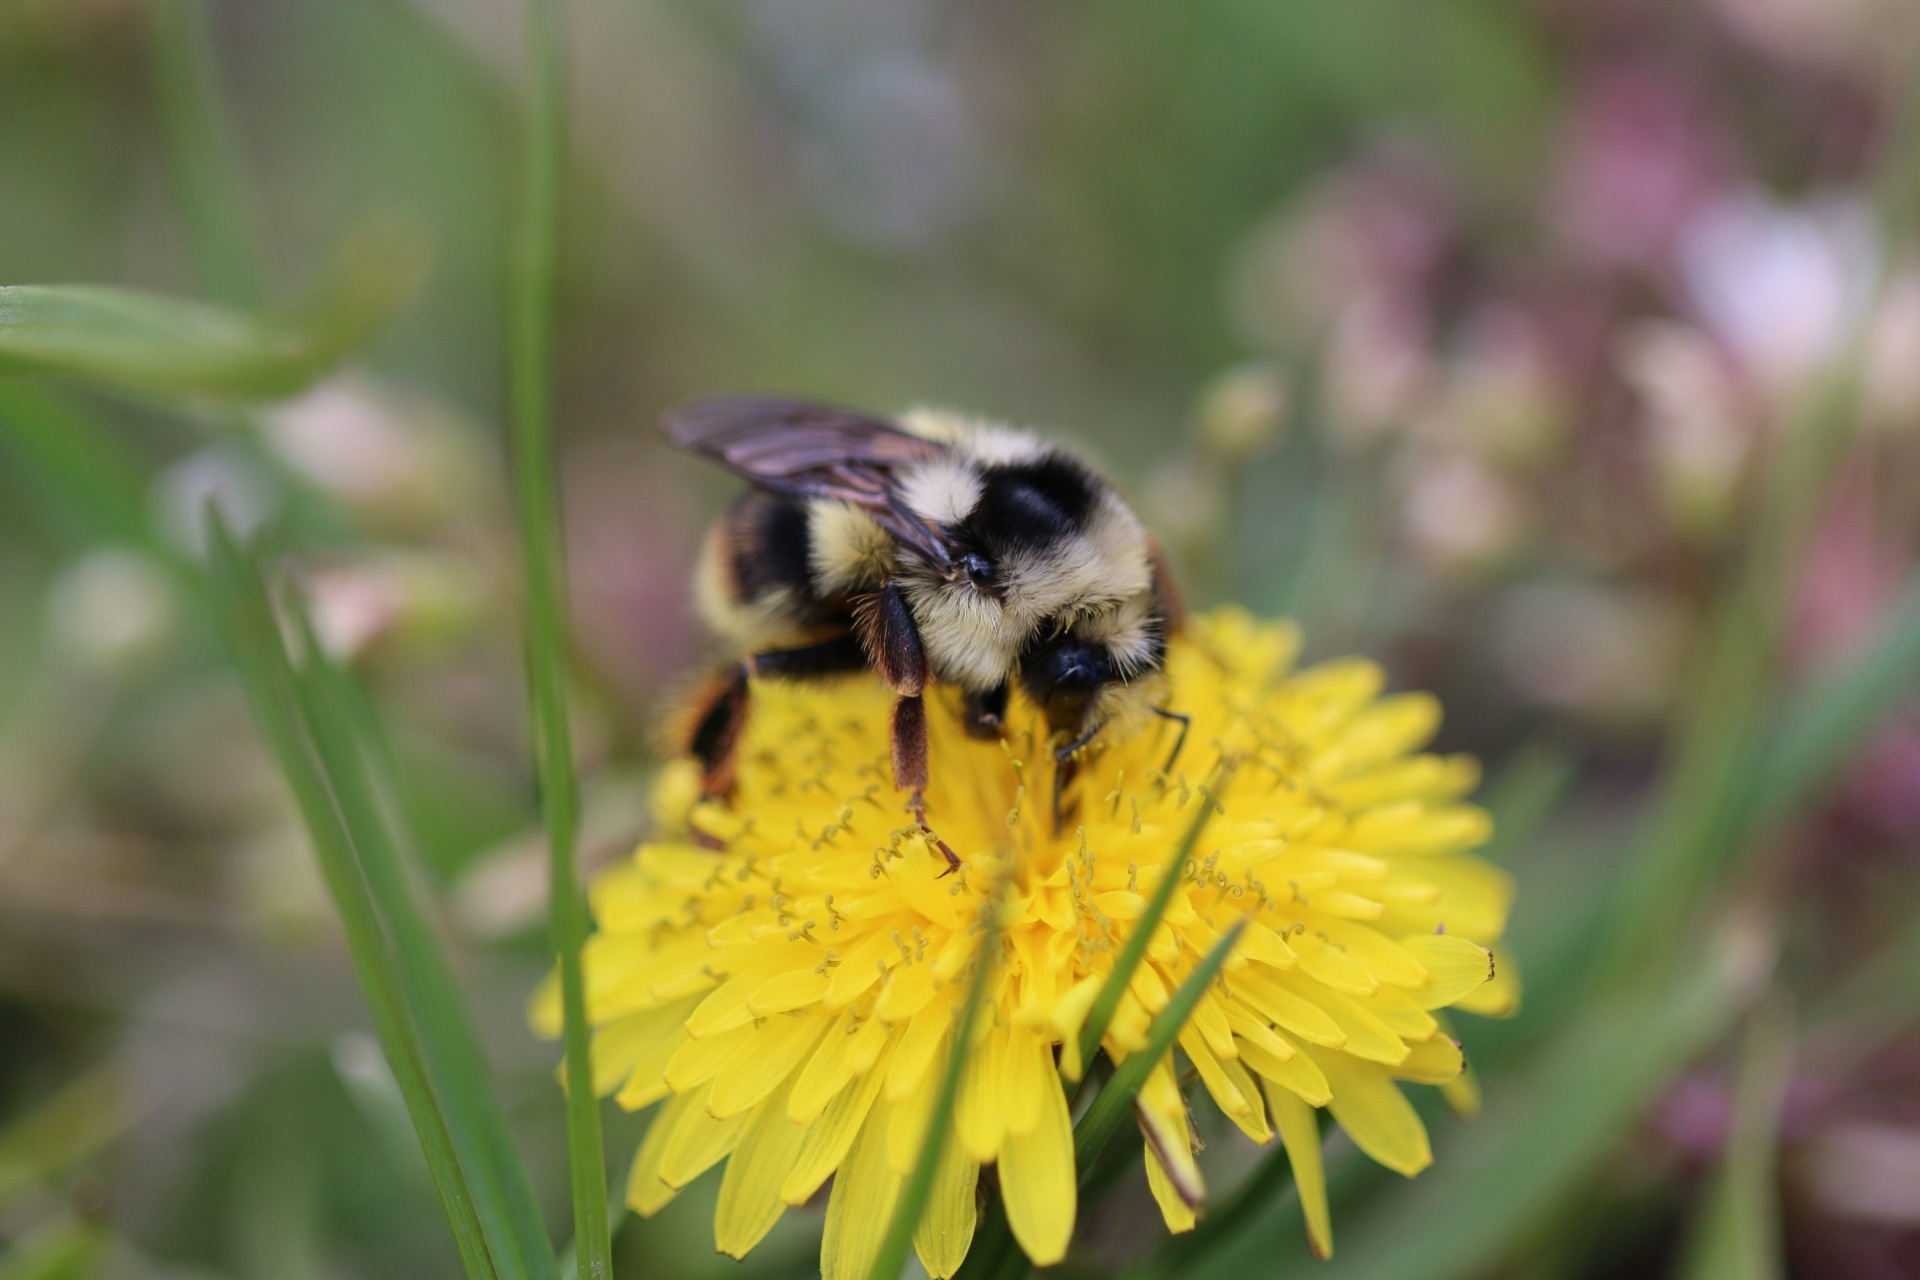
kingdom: Animalia
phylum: Arthropoda
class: Insecta
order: Hymenoptera
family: Apidae
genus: Bombus
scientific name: Bombus vancouverensis
